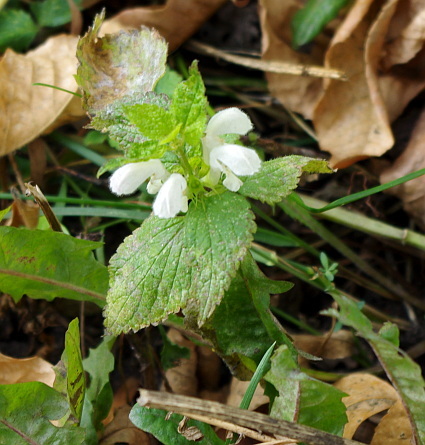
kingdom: Plantae
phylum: Tracheophyta
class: Magnoliopsida
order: Lamiales
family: Lamiaceae
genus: Lamium
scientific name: Lamium album
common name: White dead-nettle
